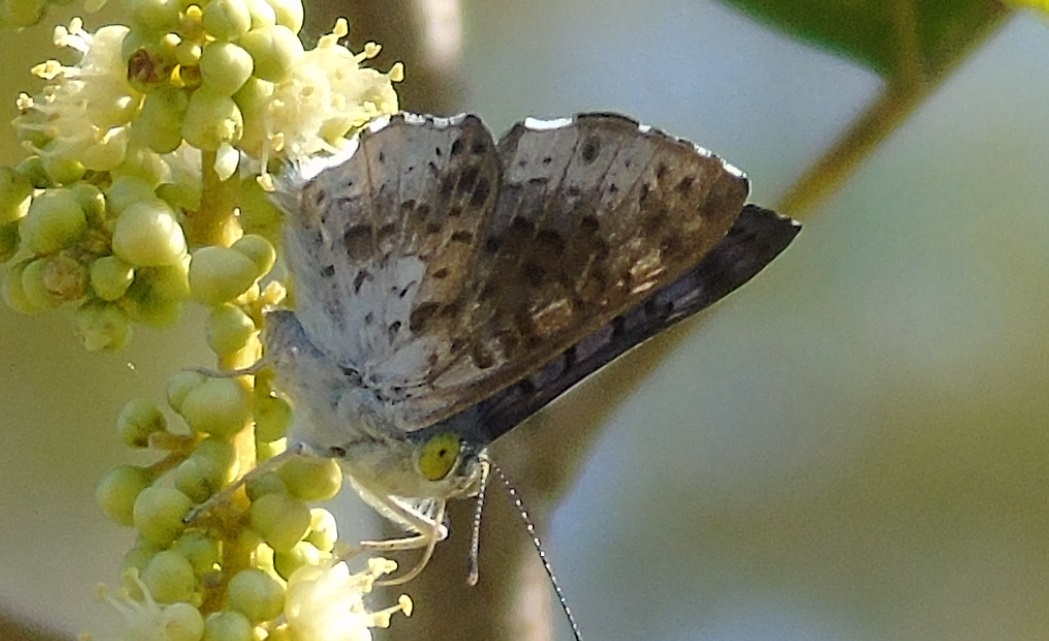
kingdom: Animalia
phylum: Arthropoda
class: Insecta
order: Lepidoptera
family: Riodinidae
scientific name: Riodinidae
